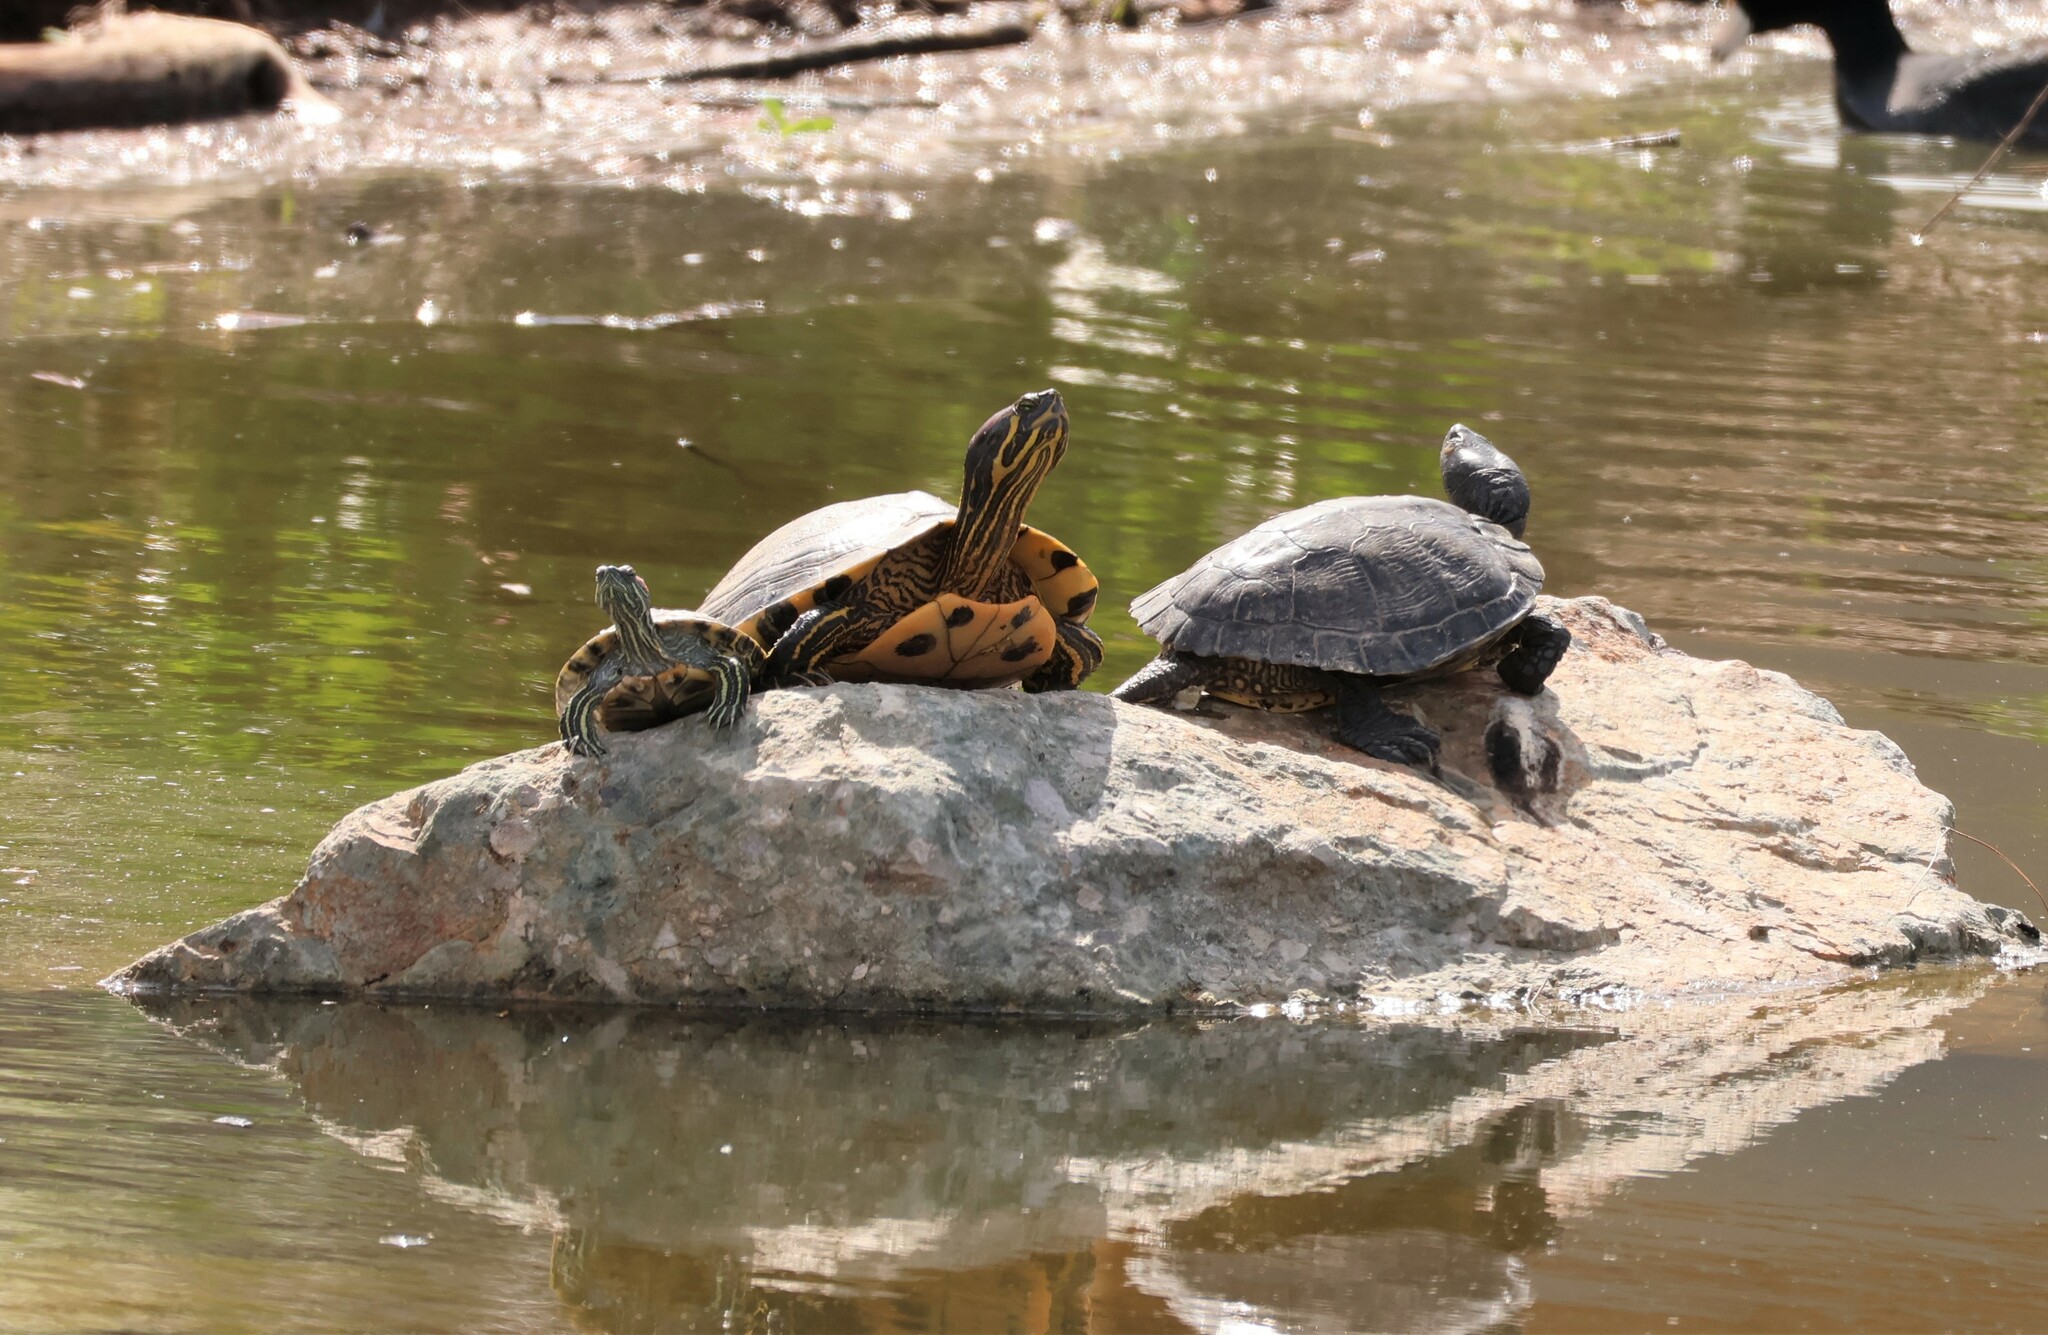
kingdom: Animalia
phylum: Chordata
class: Testudines
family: Emydidae
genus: Trachemys
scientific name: Trachemys scripta
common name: Slider
